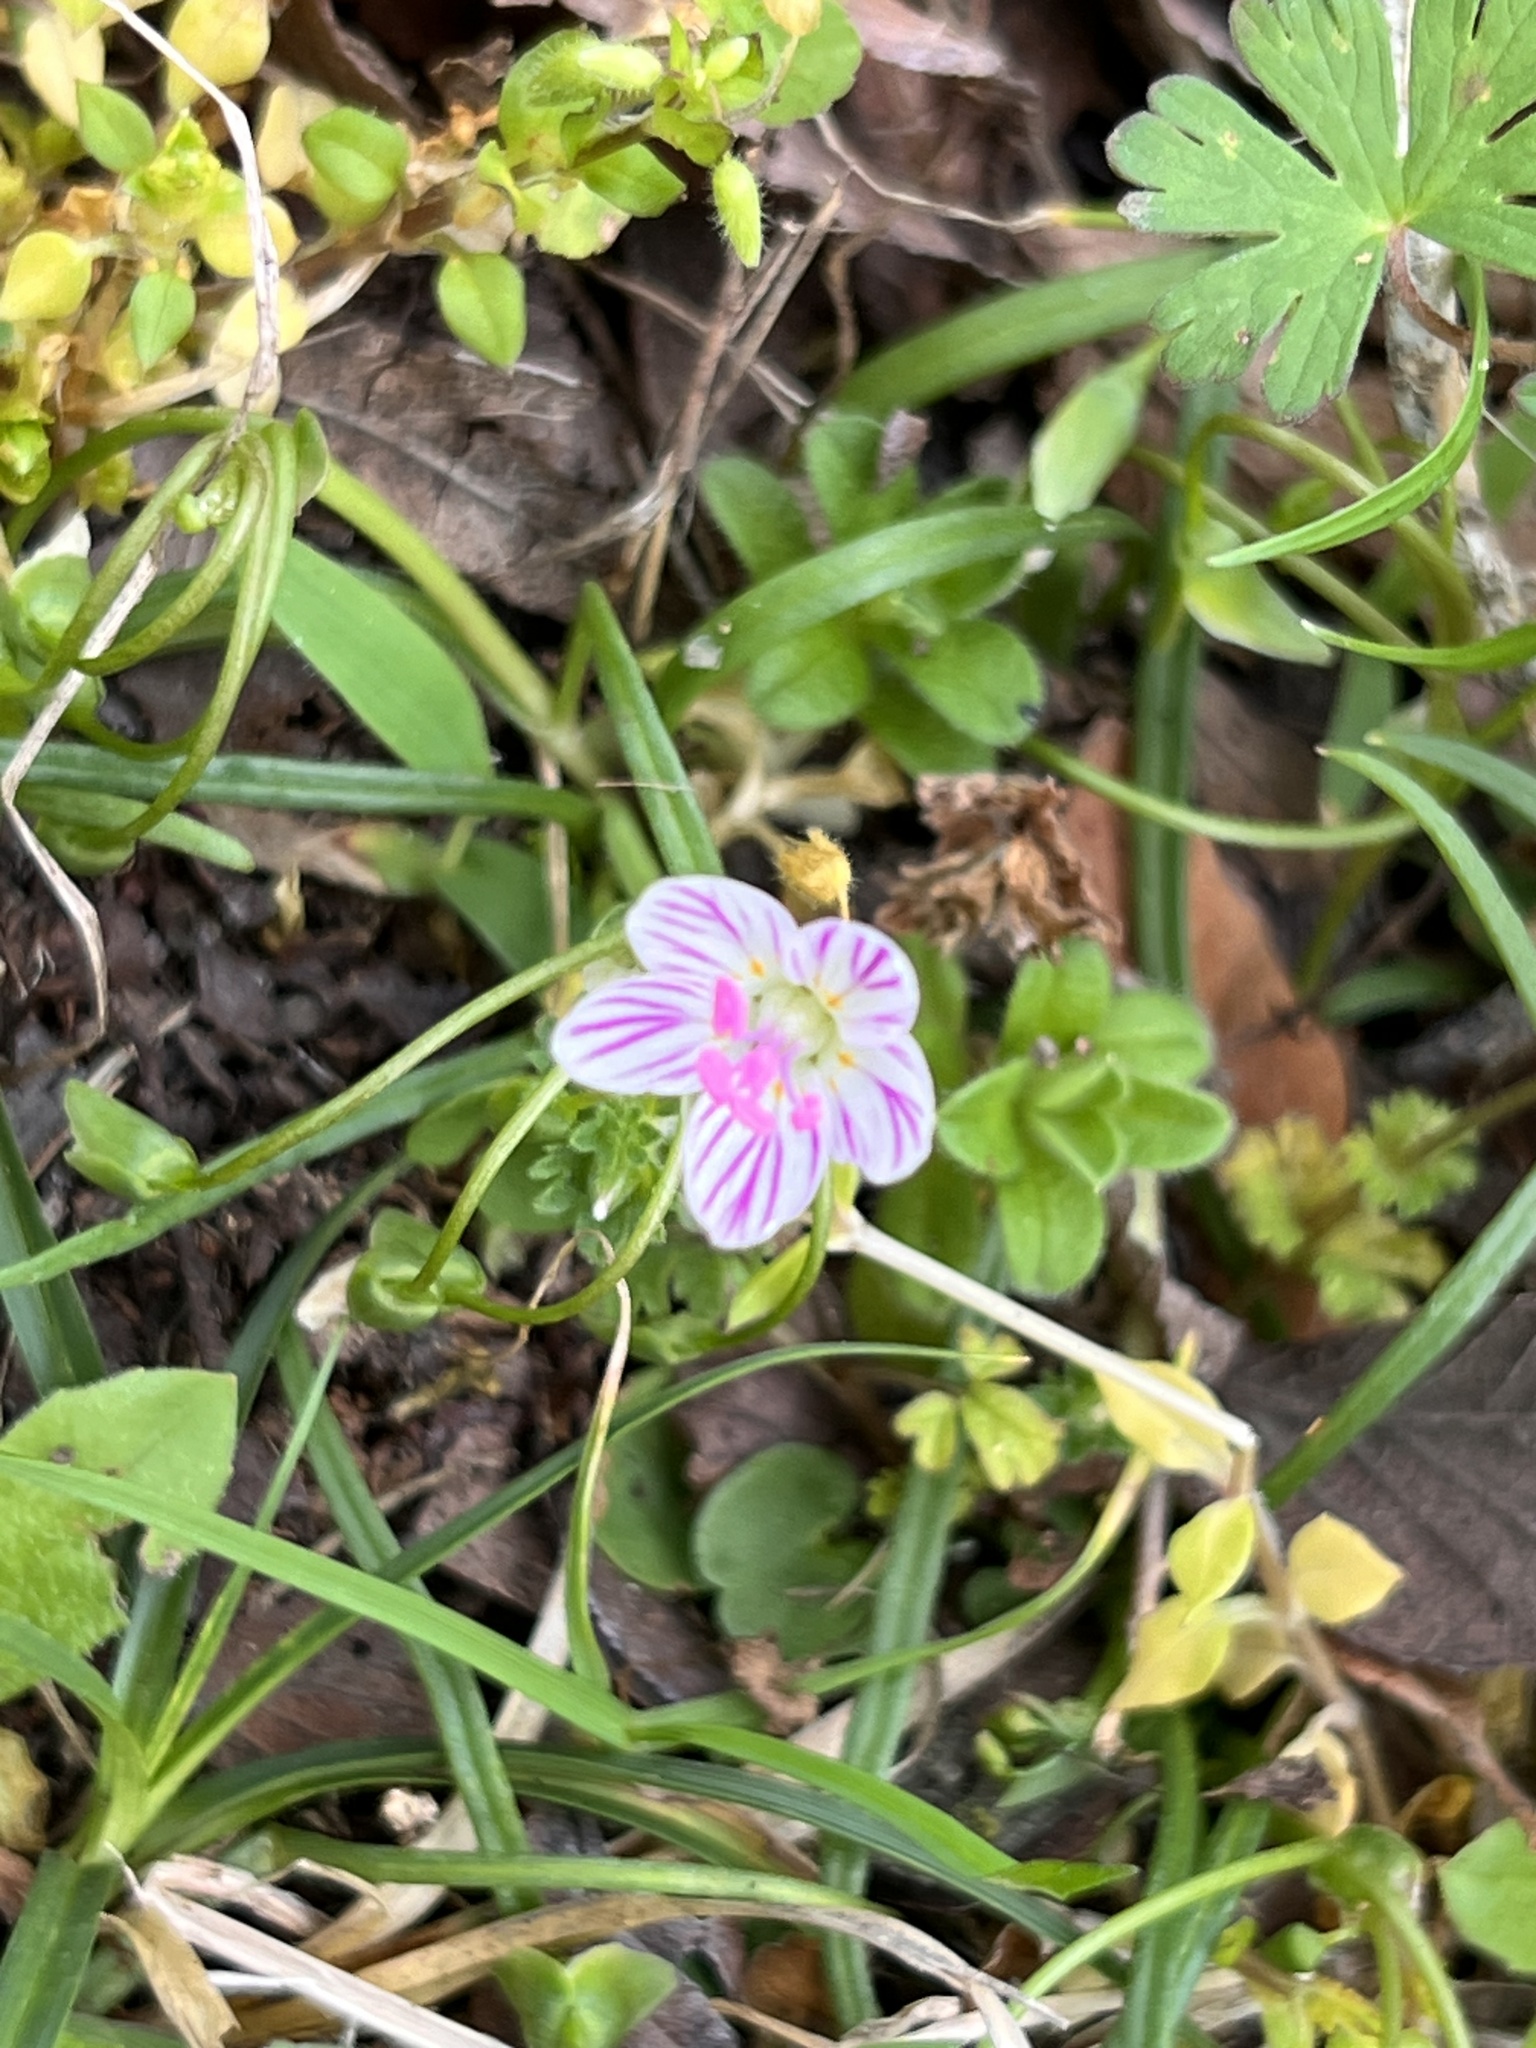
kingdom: Plantae
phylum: Tracheophyta
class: Magnoliopsida
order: Caryophyllales
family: Montiaceae
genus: Claytonia
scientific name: Claytonia virginica
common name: Virginia springbeauty
